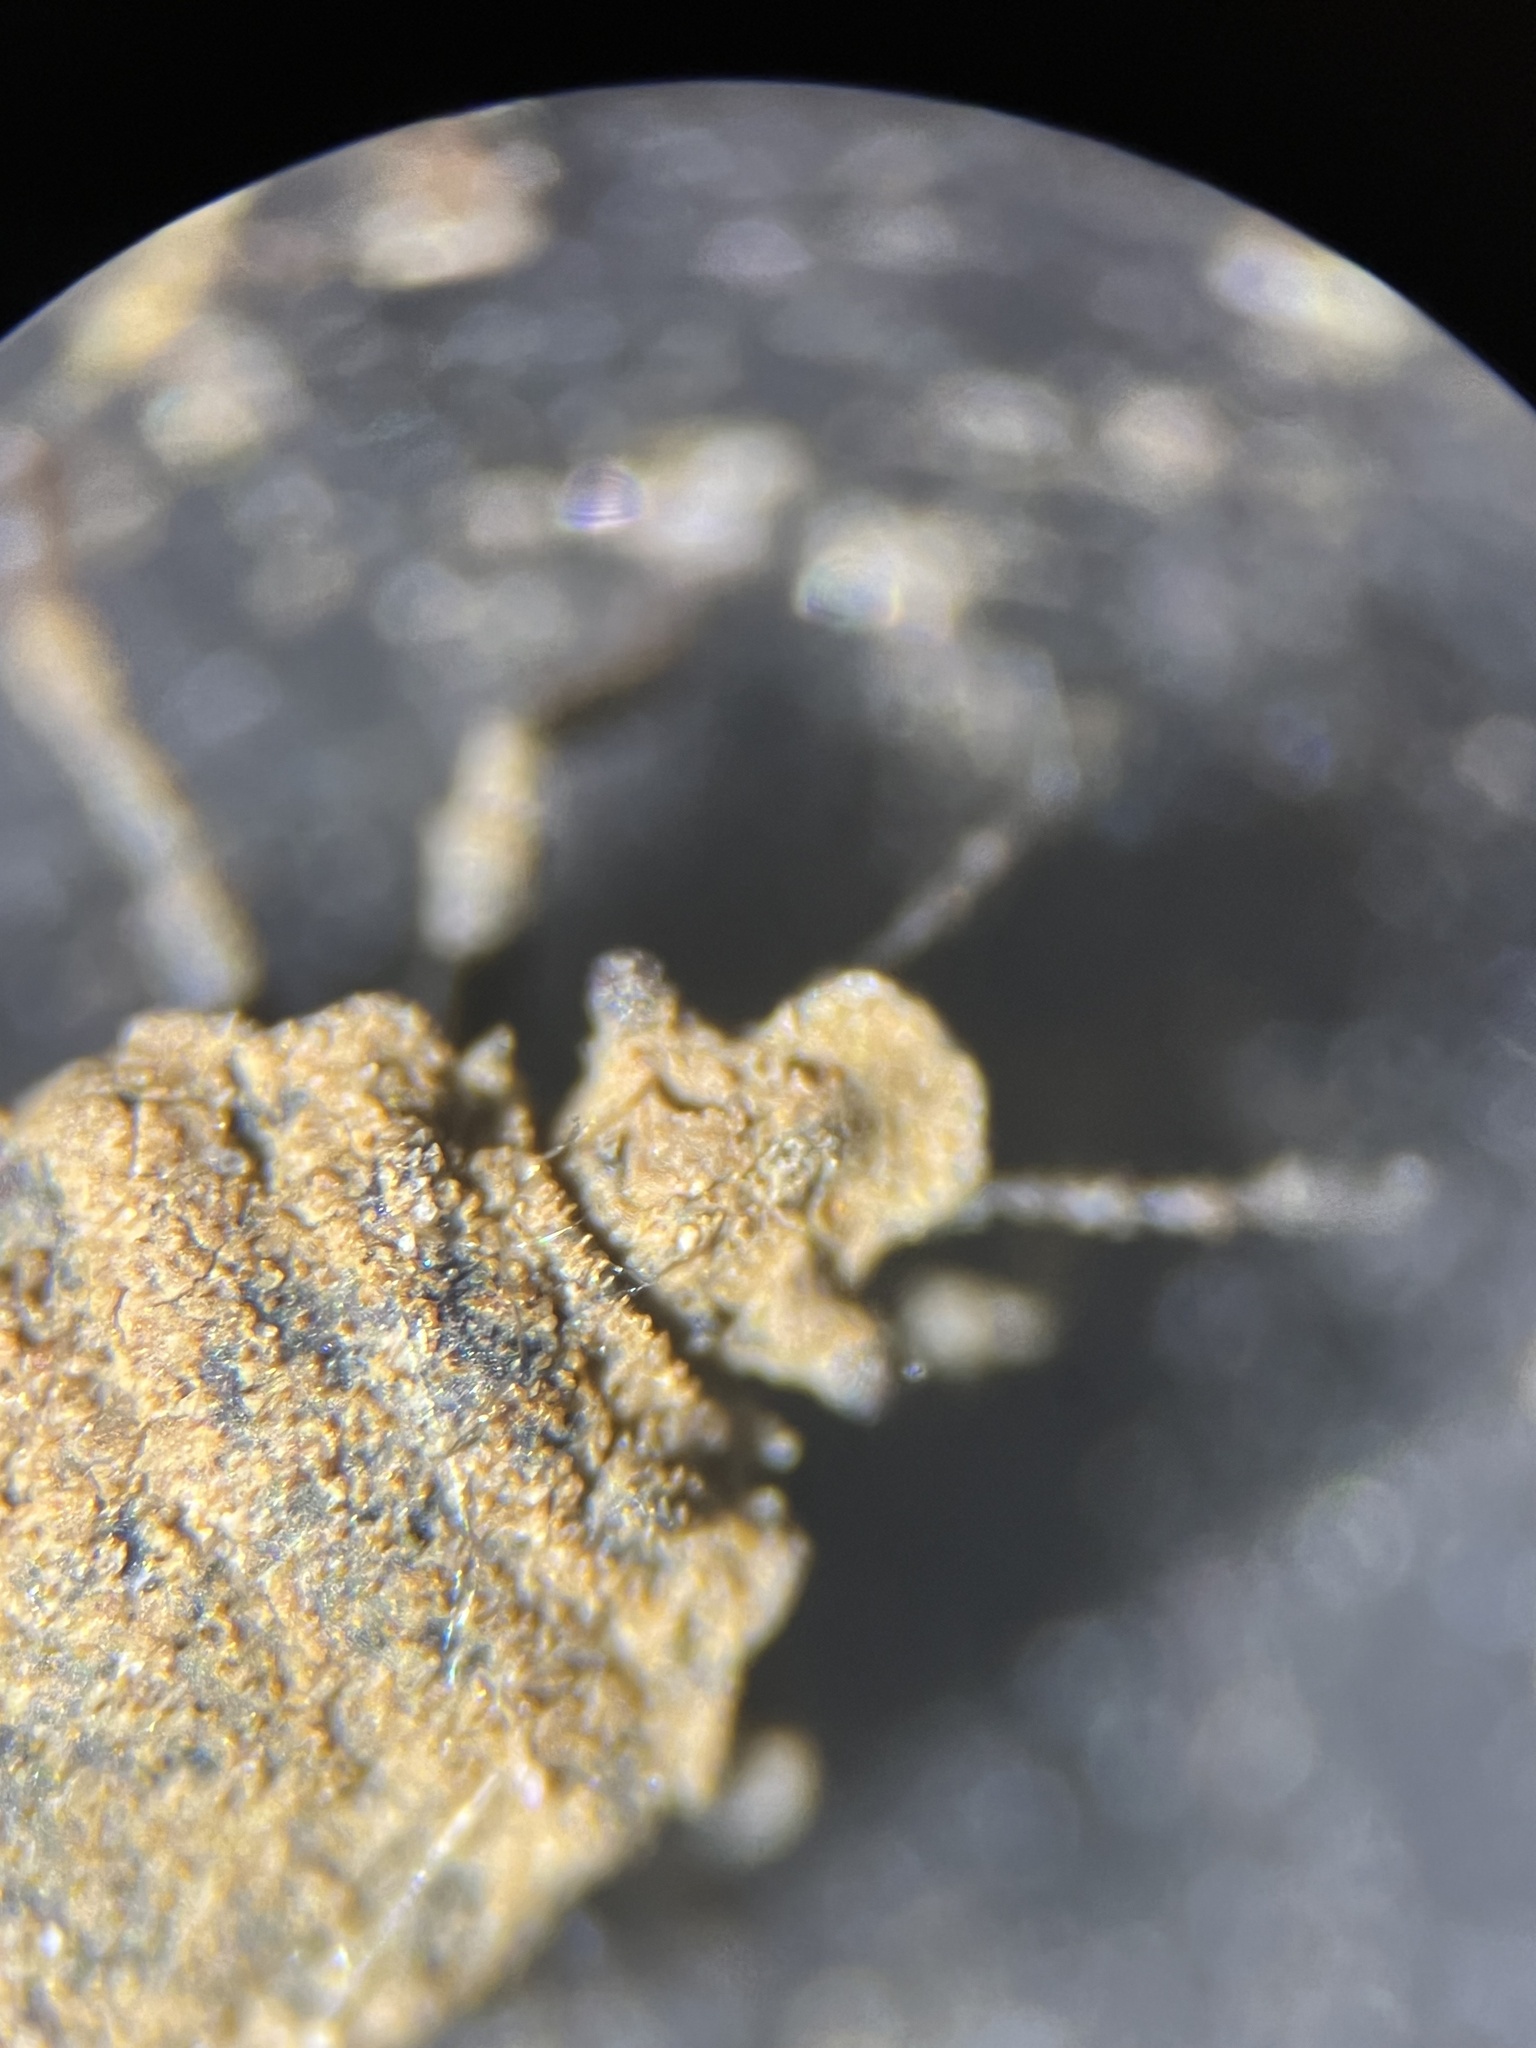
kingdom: Animalia
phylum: Arthropoda
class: Insecta
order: Hemiptera
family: Pentatomidae
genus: Weda
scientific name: Weda tumidifrons
